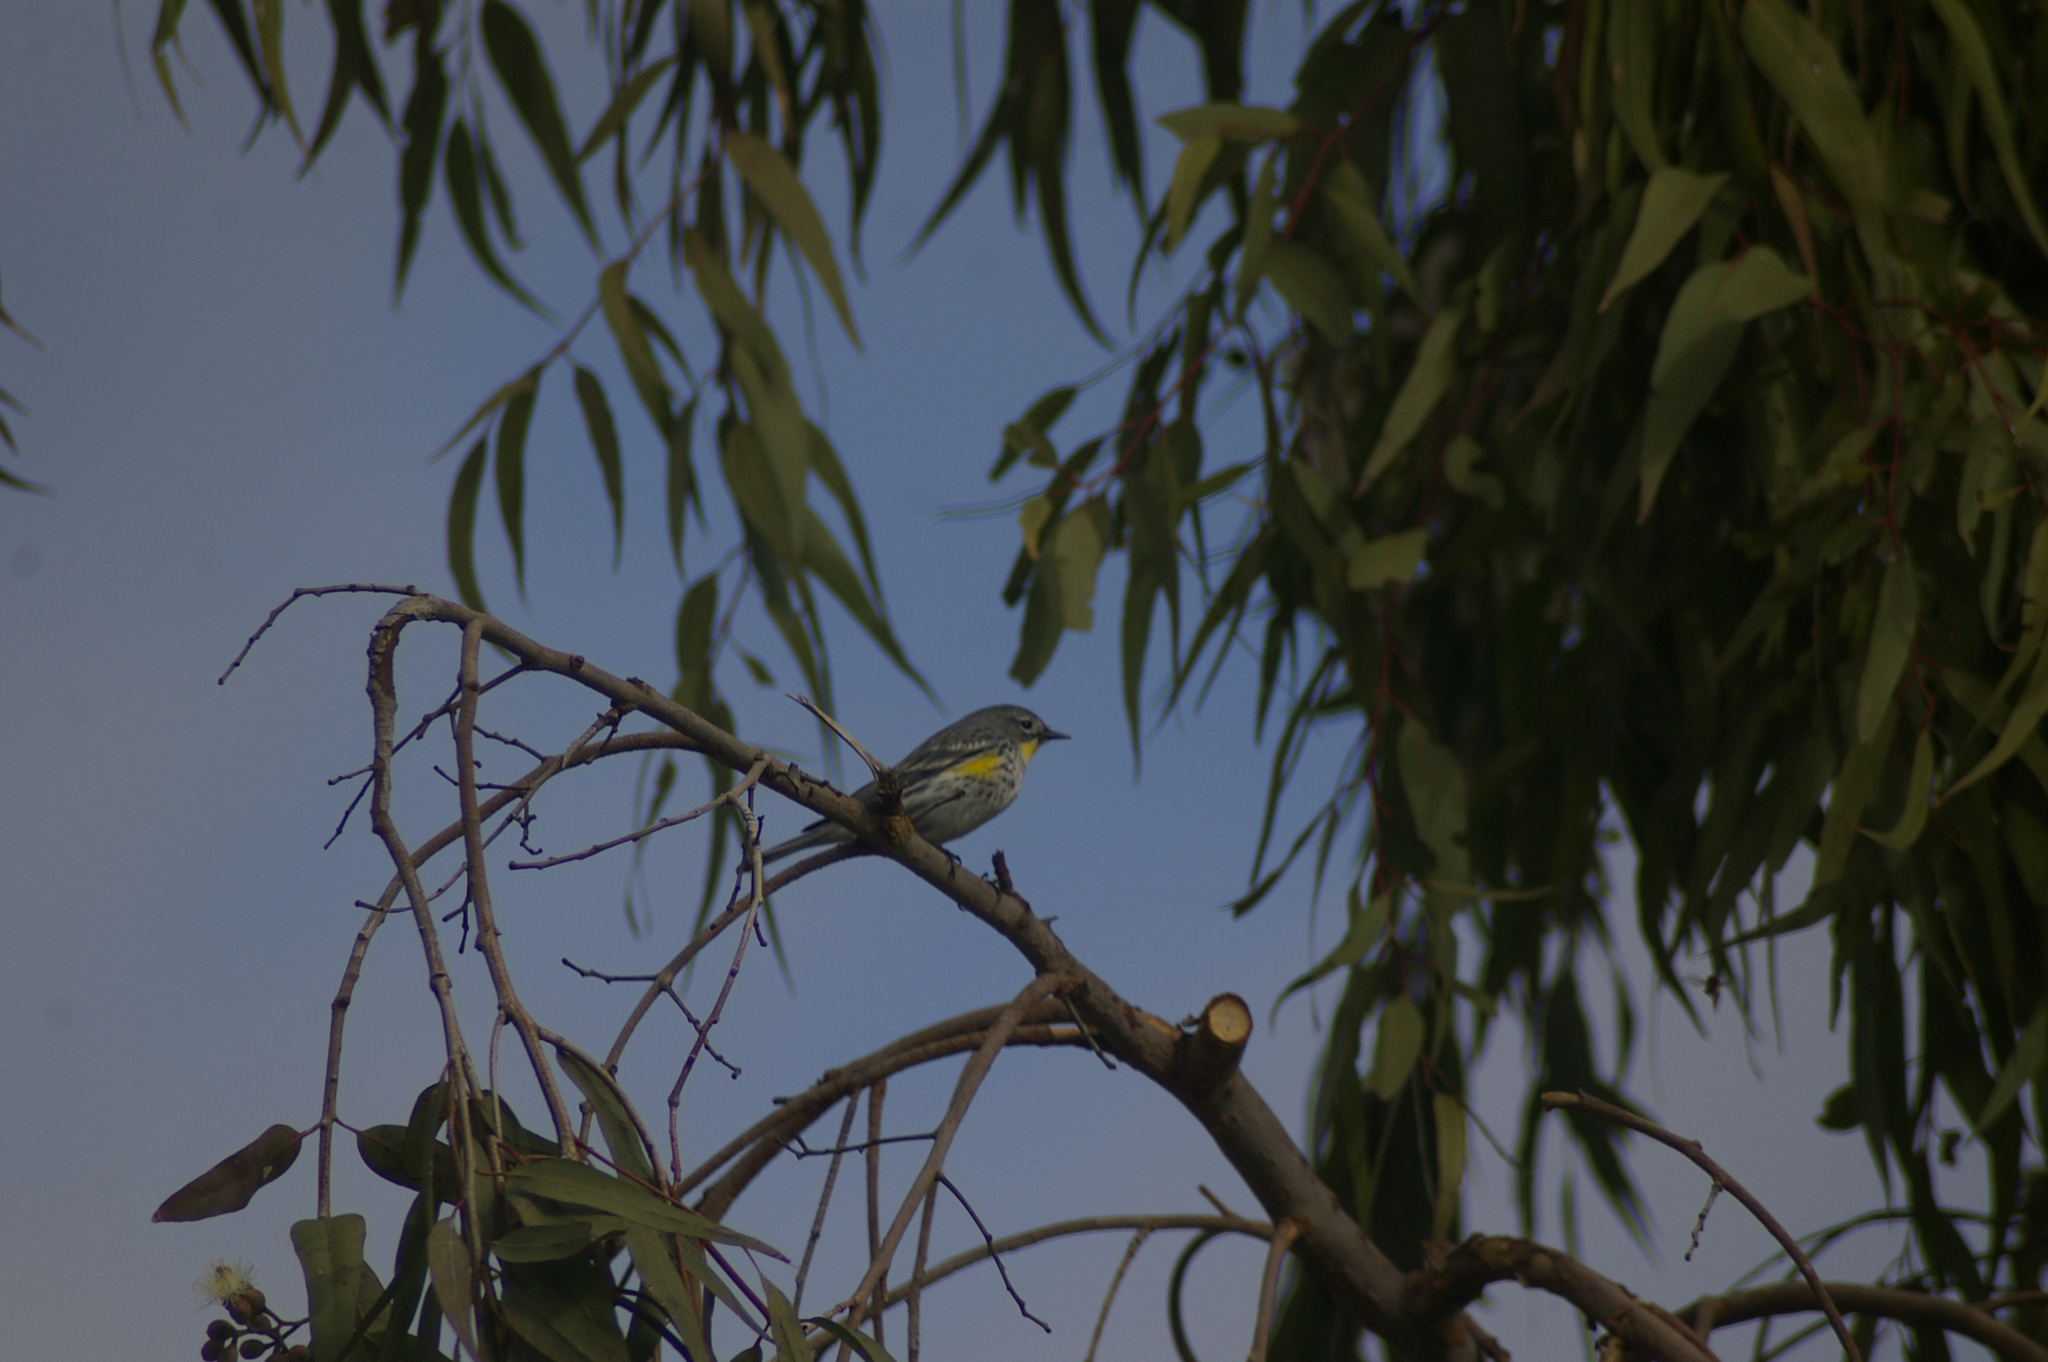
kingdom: Animalia
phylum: Chordata
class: Aves
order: Passeriformes
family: Parulidae
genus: Setophaga
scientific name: Setophaga coronata
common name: Myrtle warbler
